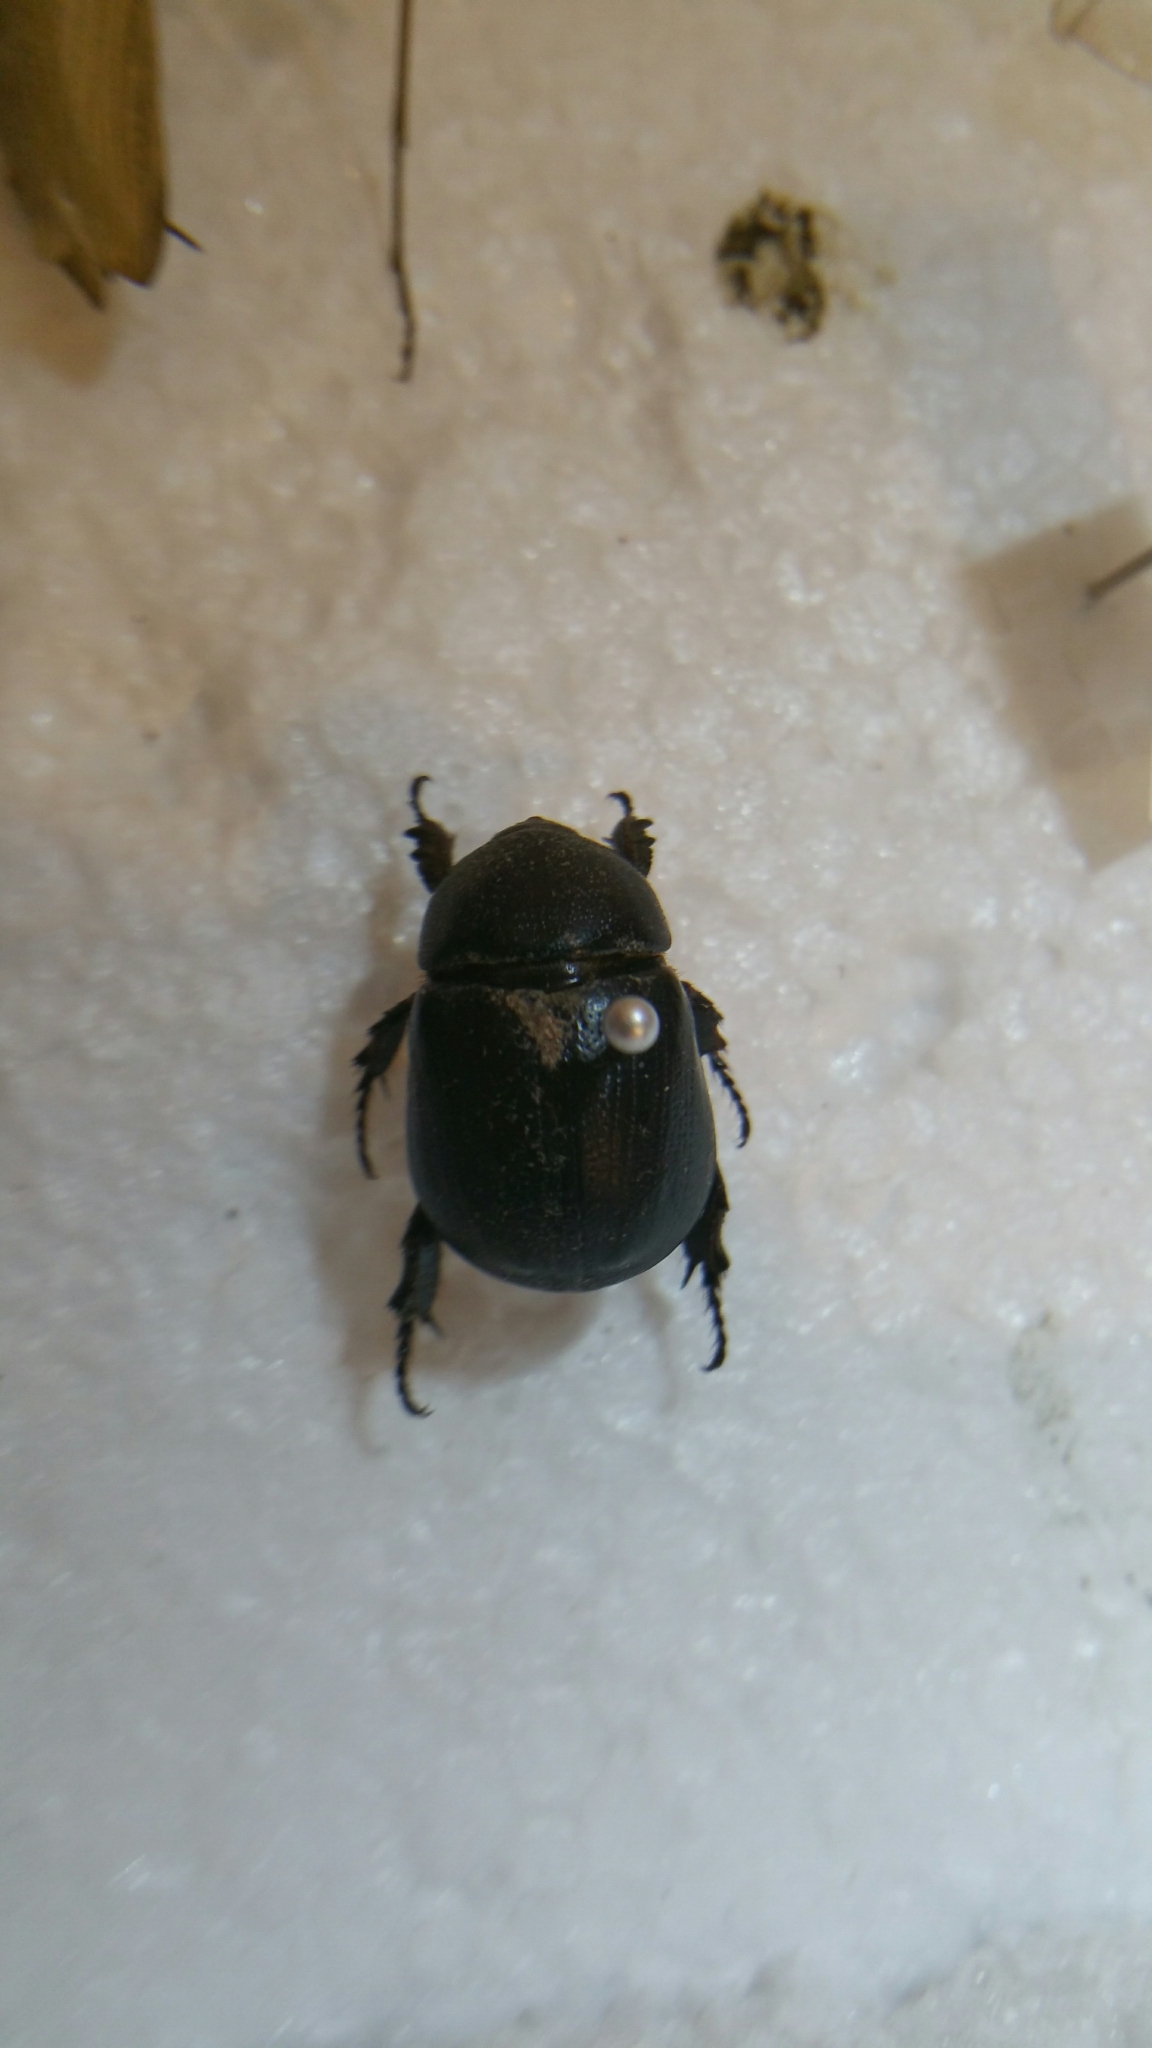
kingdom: Animalia
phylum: Arthropoda
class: Insecta
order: Coleoptera
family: Scarabaeidae
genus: Pentodon
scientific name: Pentodon idiota
